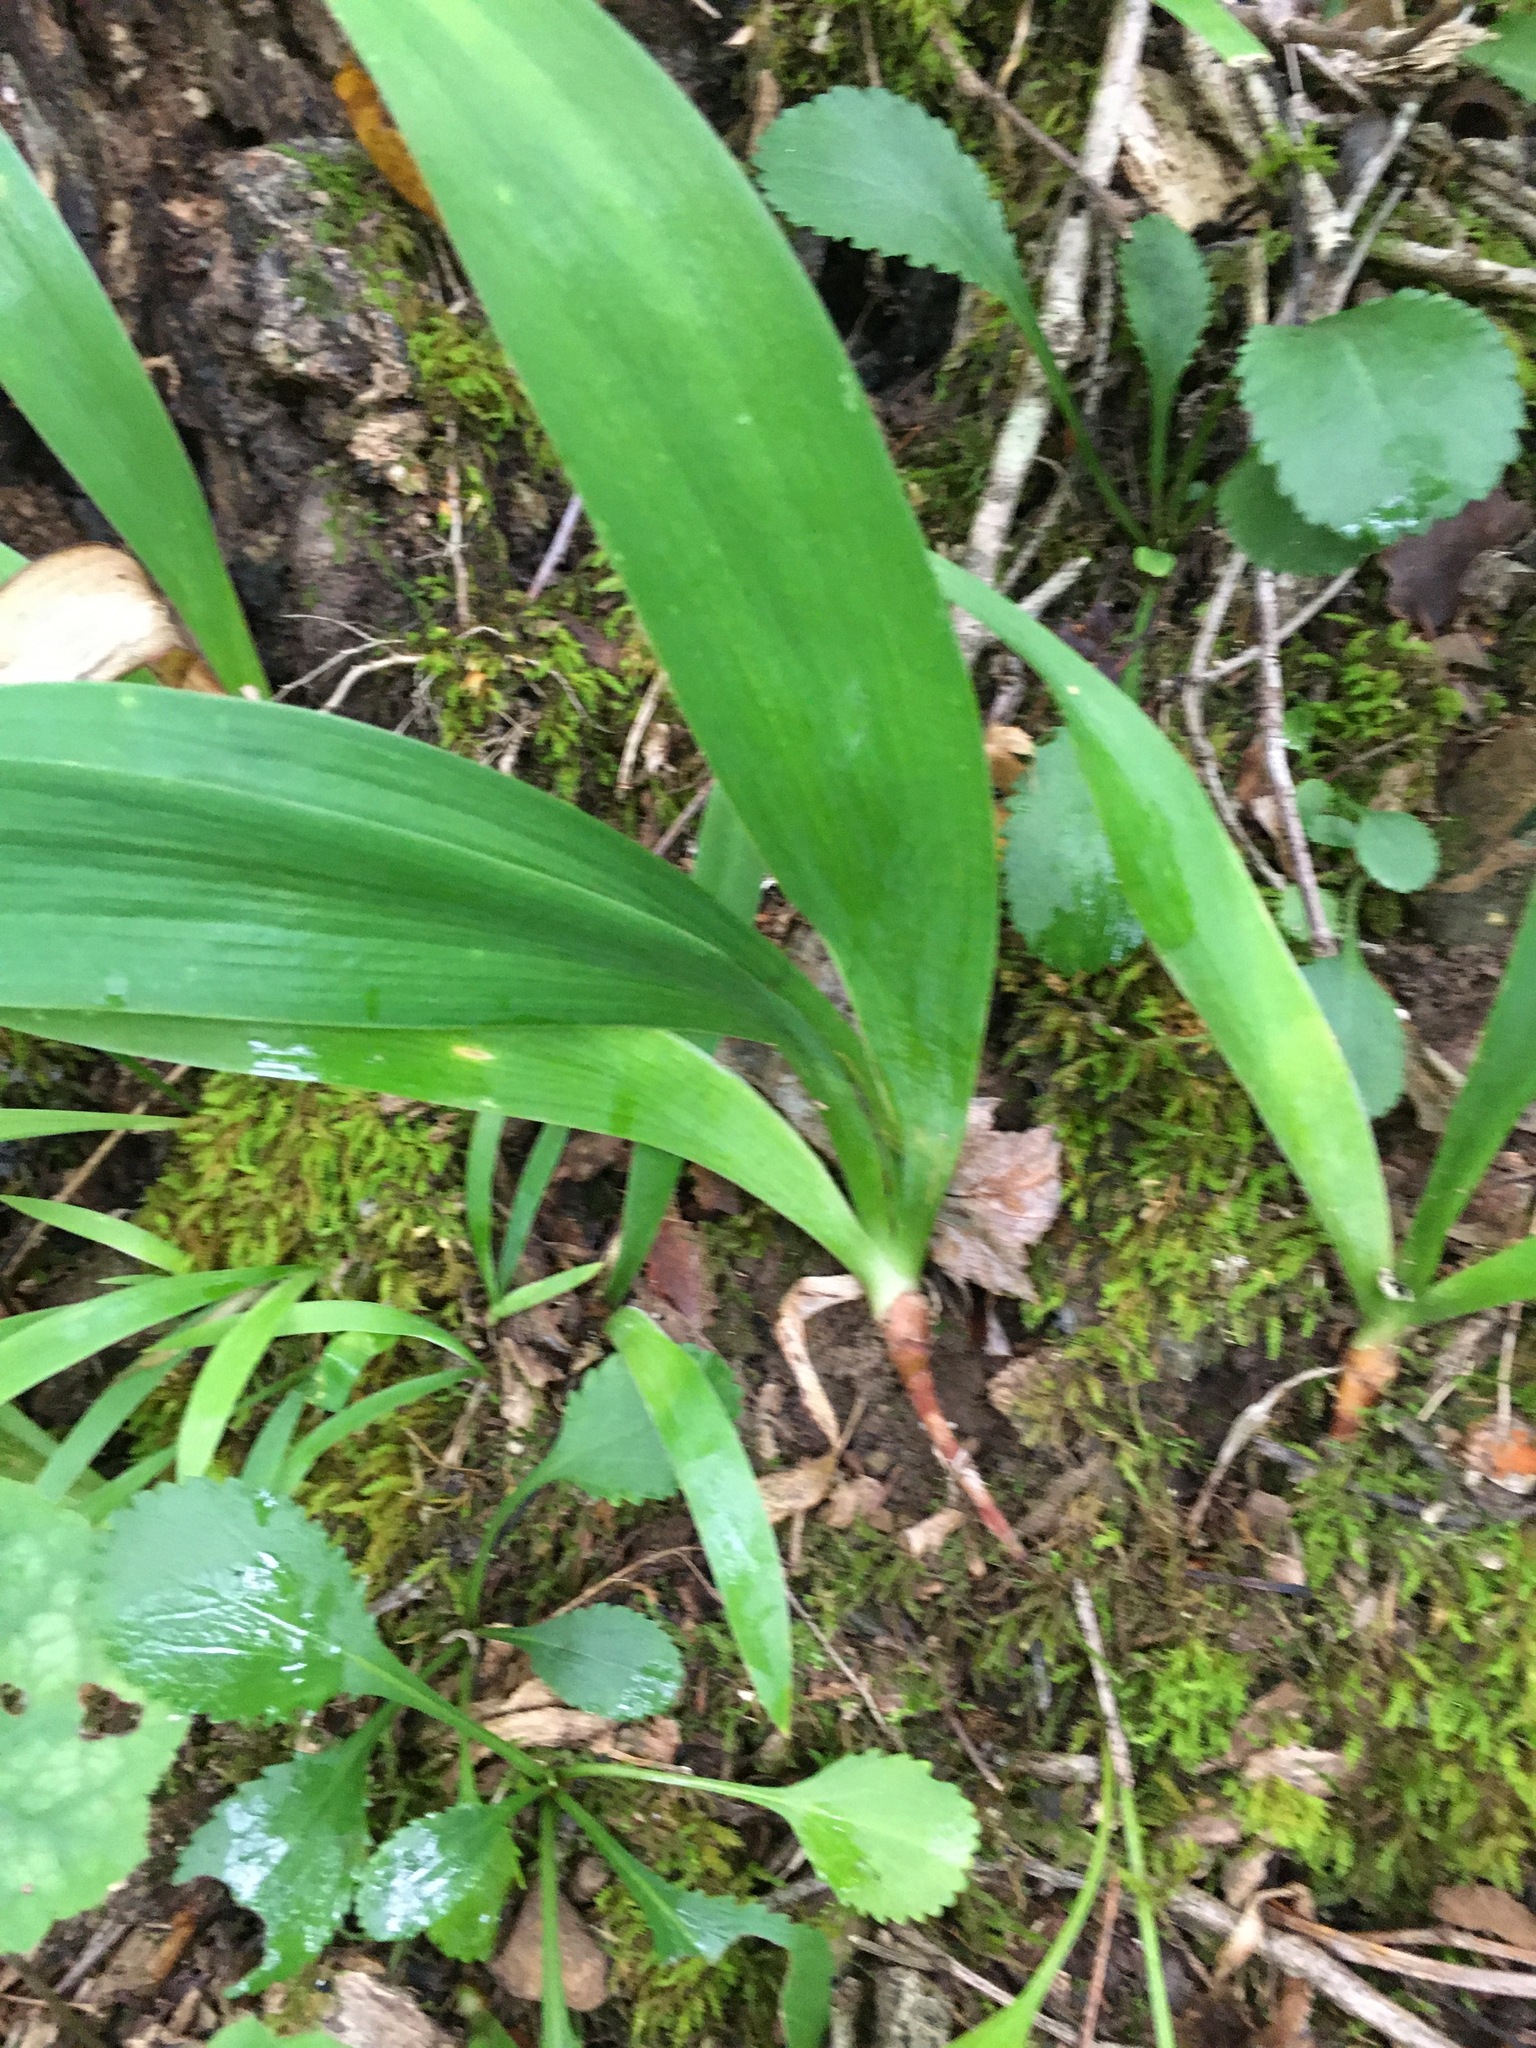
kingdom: Plantae
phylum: Tracheophyta
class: Liliopsida
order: Asparagales
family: Iridaceae
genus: Iris
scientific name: Iris cristata
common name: Crested iris
